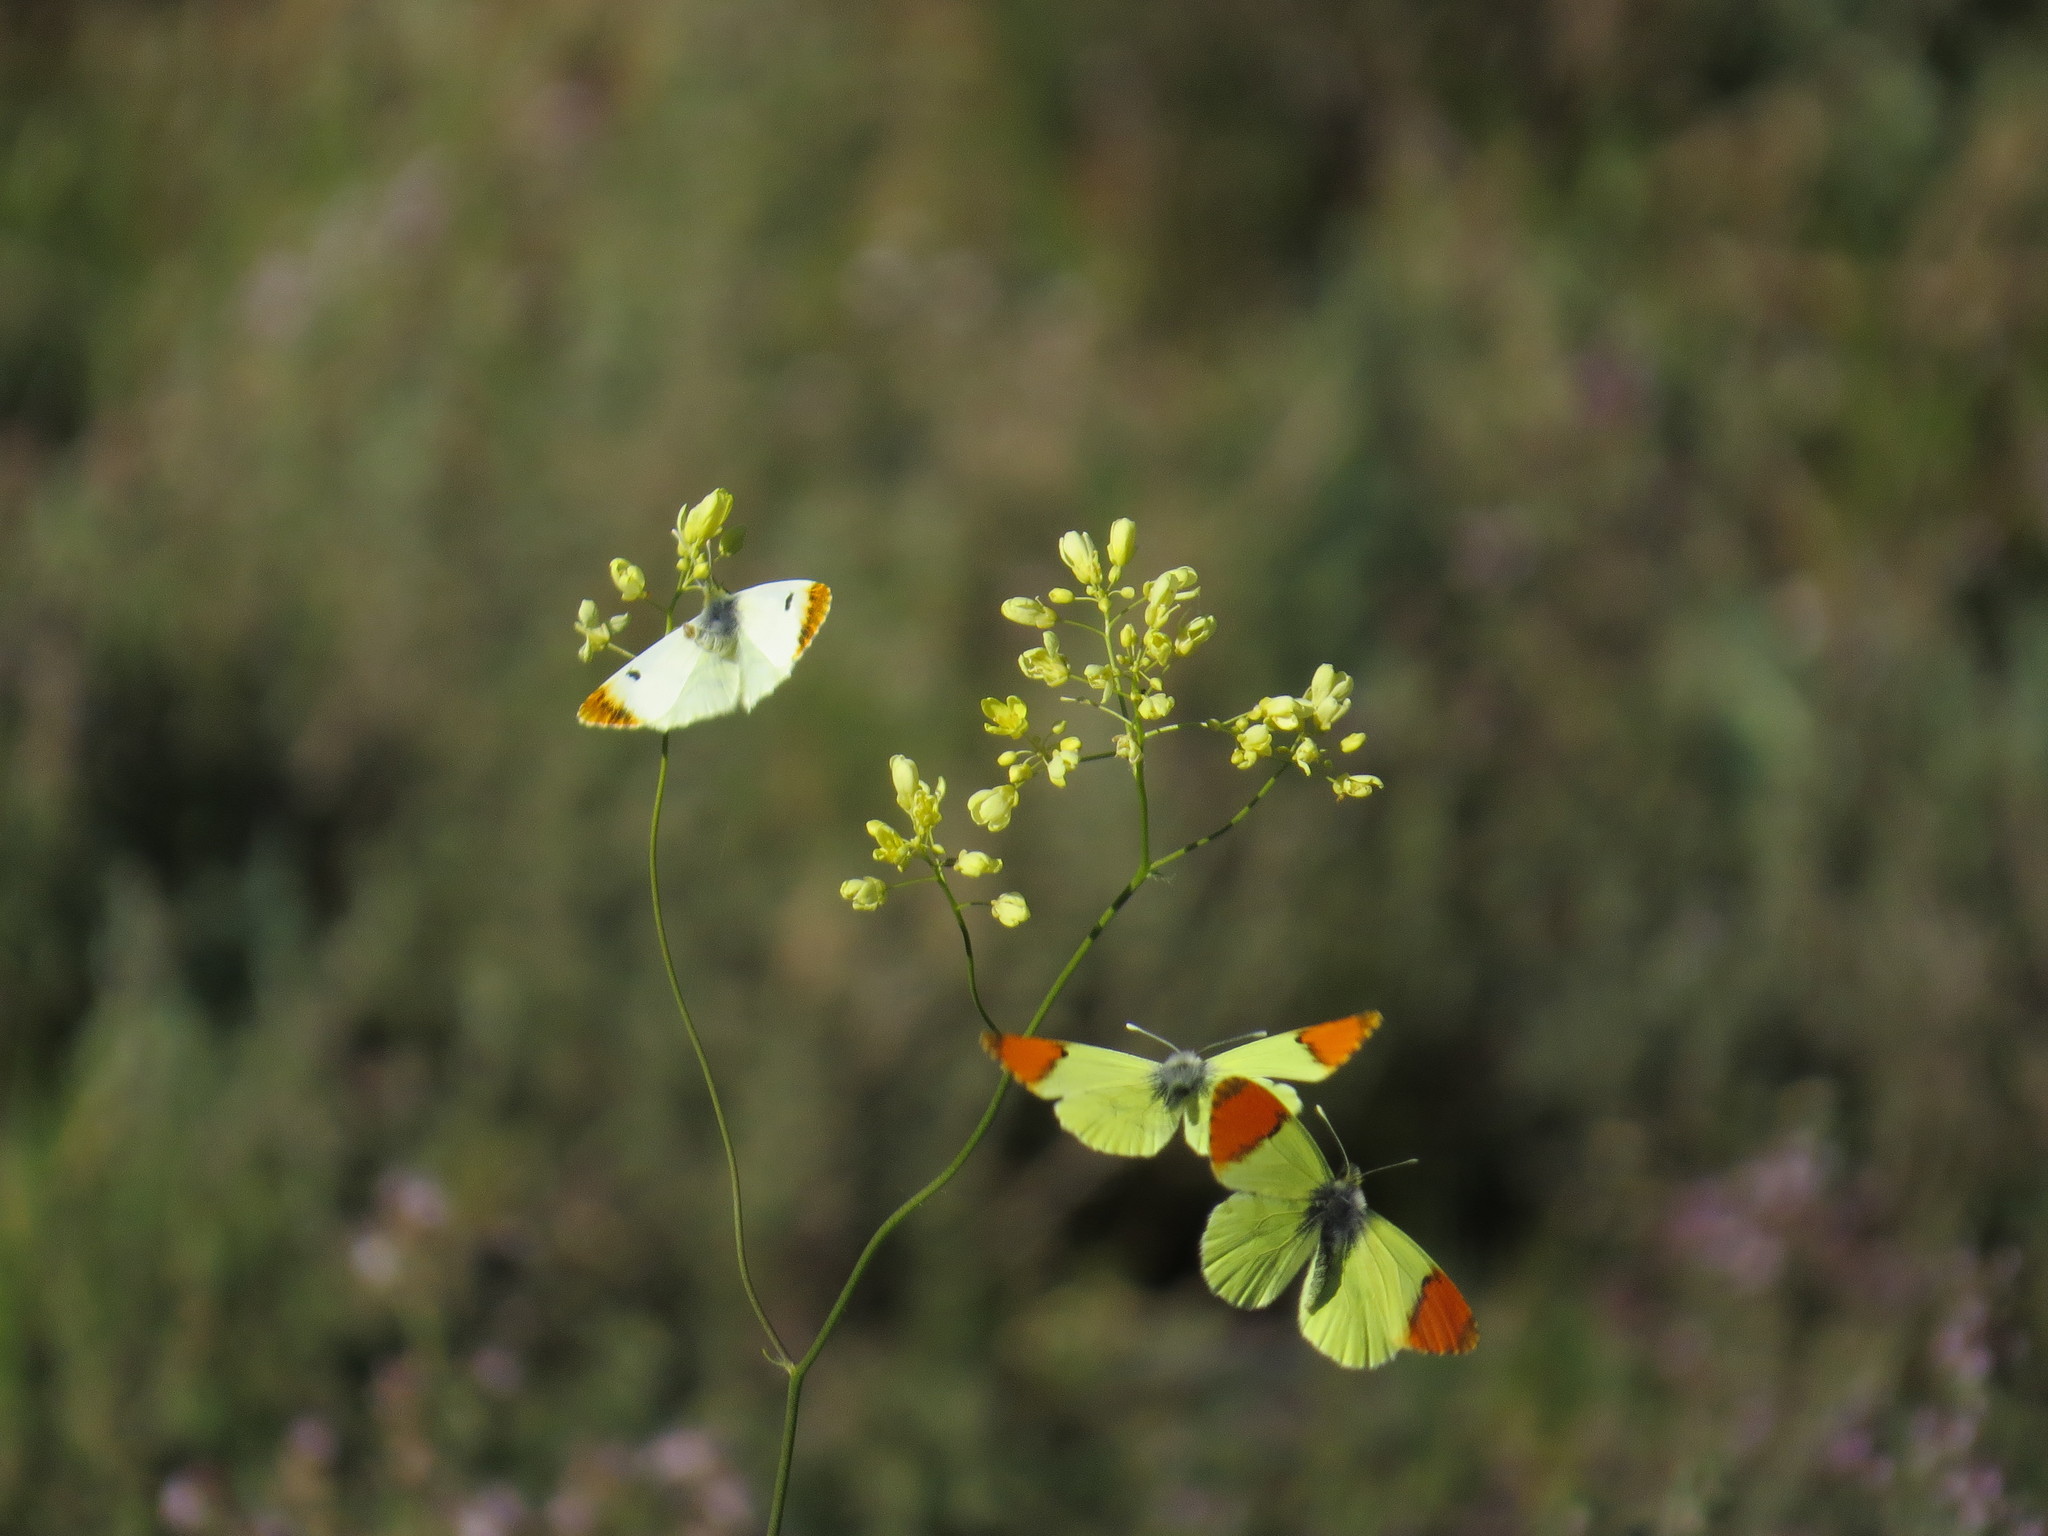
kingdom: Animalia
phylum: Arthropoda
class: Insecta
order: Lepidoptera
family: Pieridae
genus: Anthocharis
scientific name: Anthocharis euphenoides
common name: Provence orange-tip
